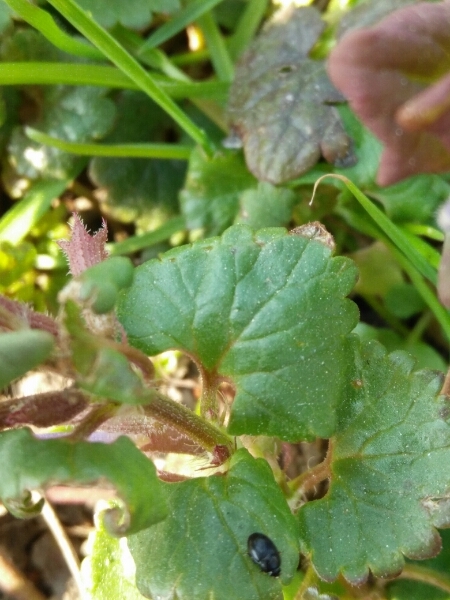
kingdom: Plantae
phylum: Tracheophyta
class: Magnoliopsida
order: Lamiales
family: Lamiaceae
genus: Glechoma
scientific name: Glechoma hederacea
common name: Ground ivy
